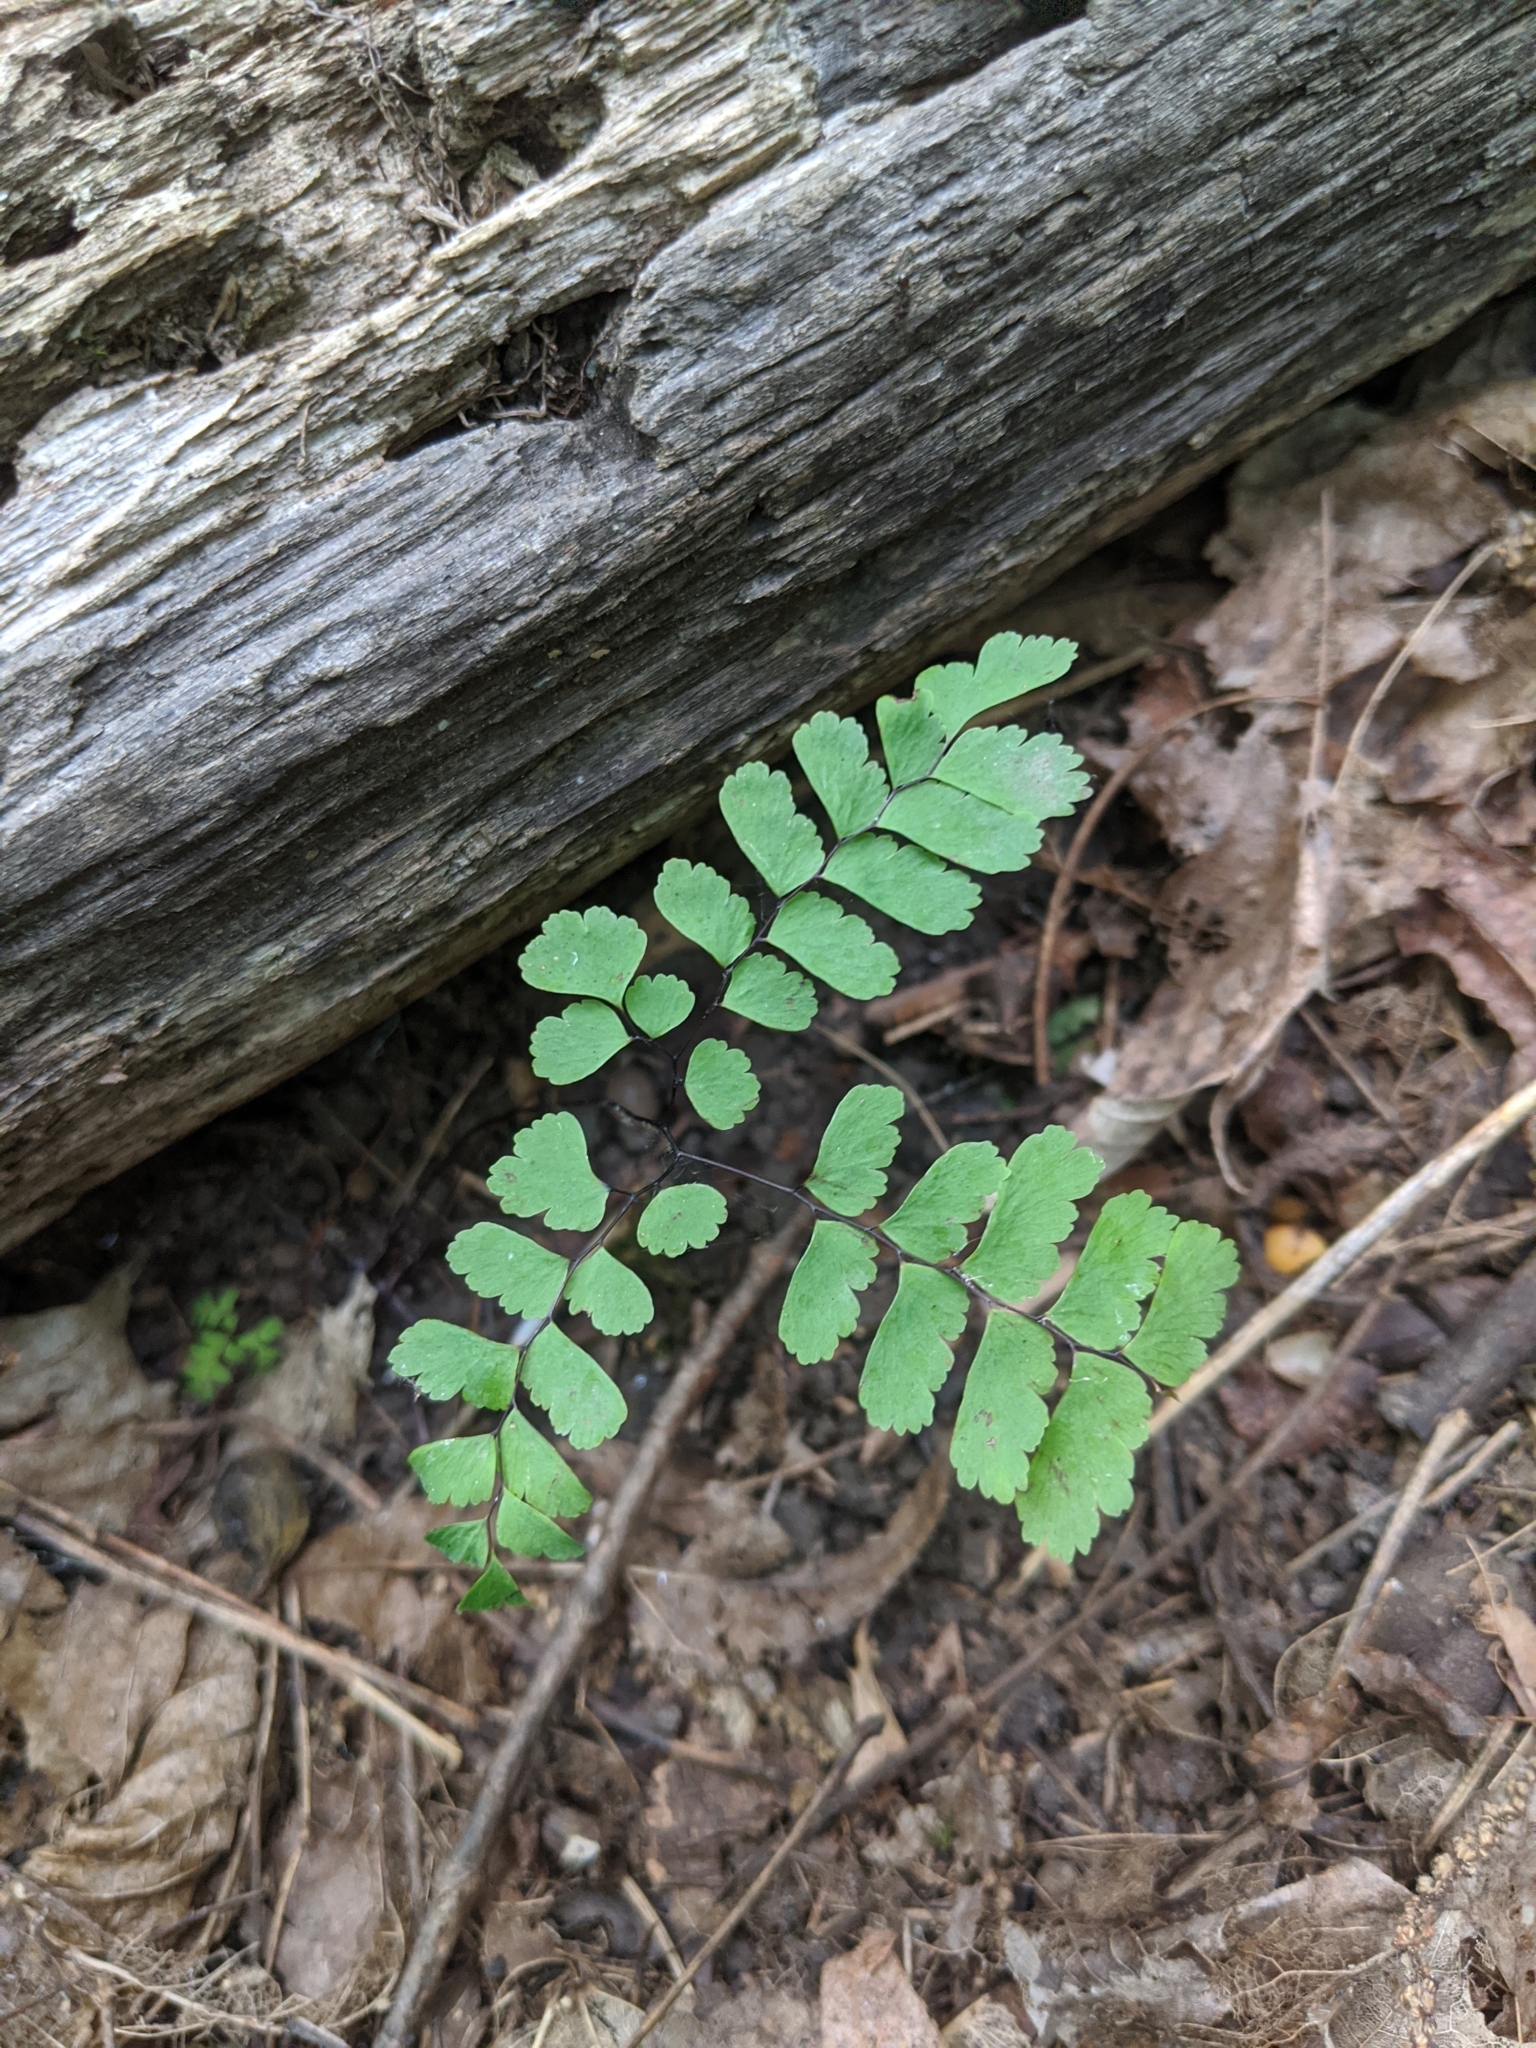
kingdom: Plantae
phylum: Tracheophyta
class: Polypodiopsida
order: Polypodiales
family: Pteridaceae
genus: Adiantum
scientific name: Adiantum pedatum
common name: Five-finger fern
